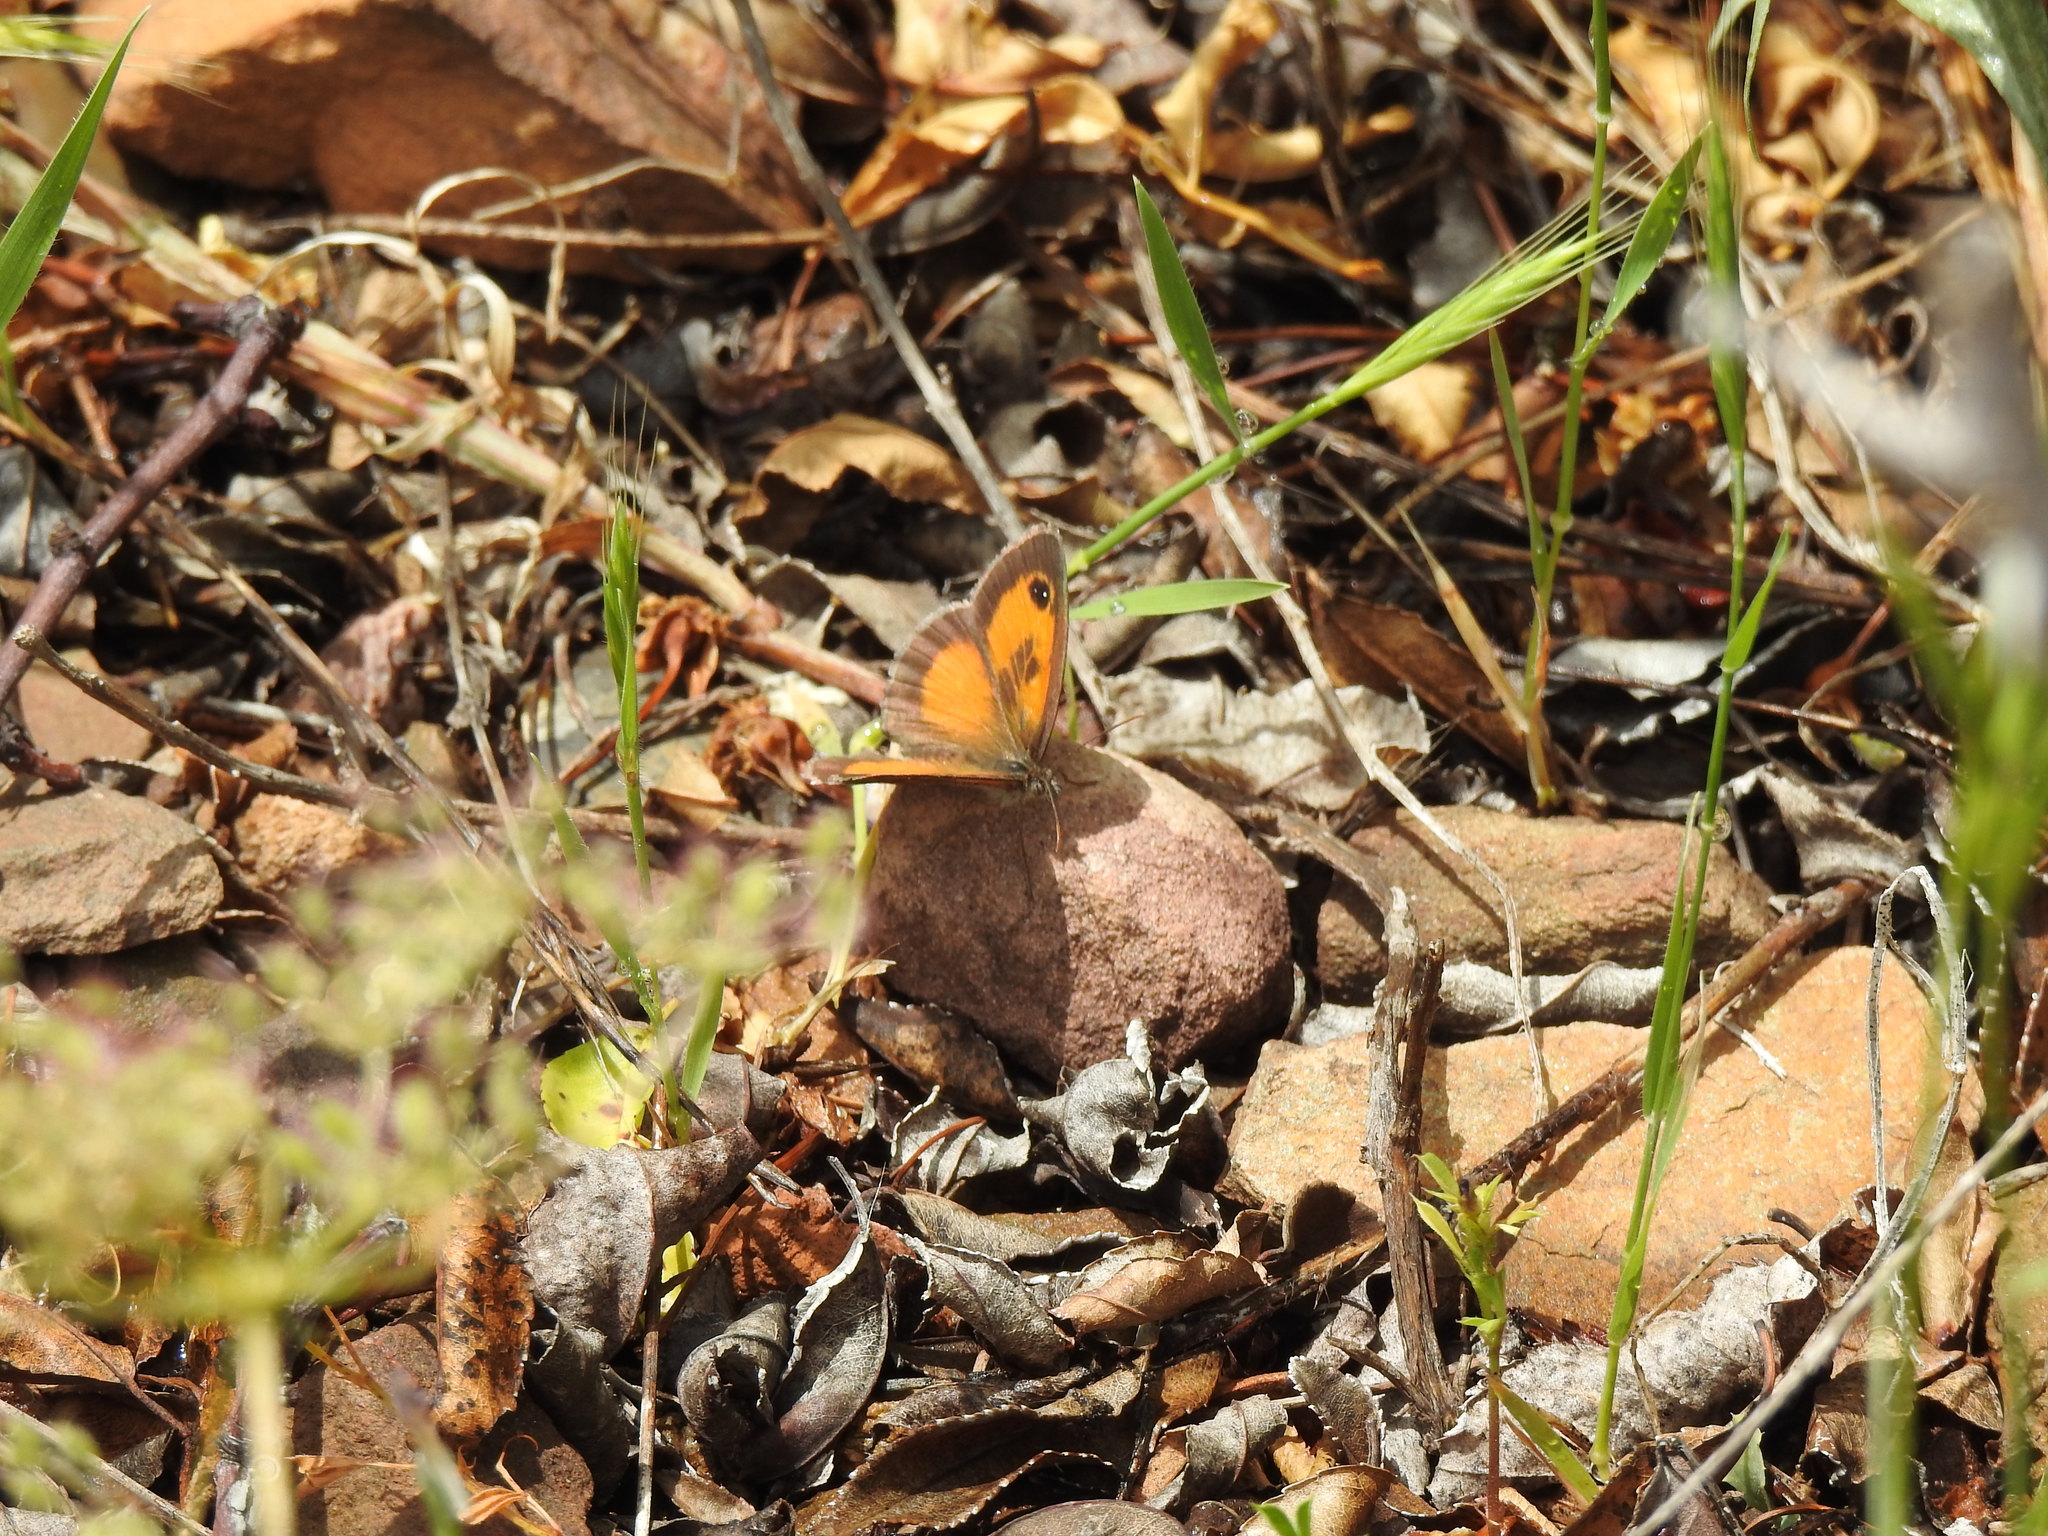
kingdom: Animalia
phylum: Arthropoda
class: Insecta
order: Lepidoptera
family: Nymphalidae
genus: Pyronia
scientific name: Pyronia cecilia
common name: Southern gatekeeper
